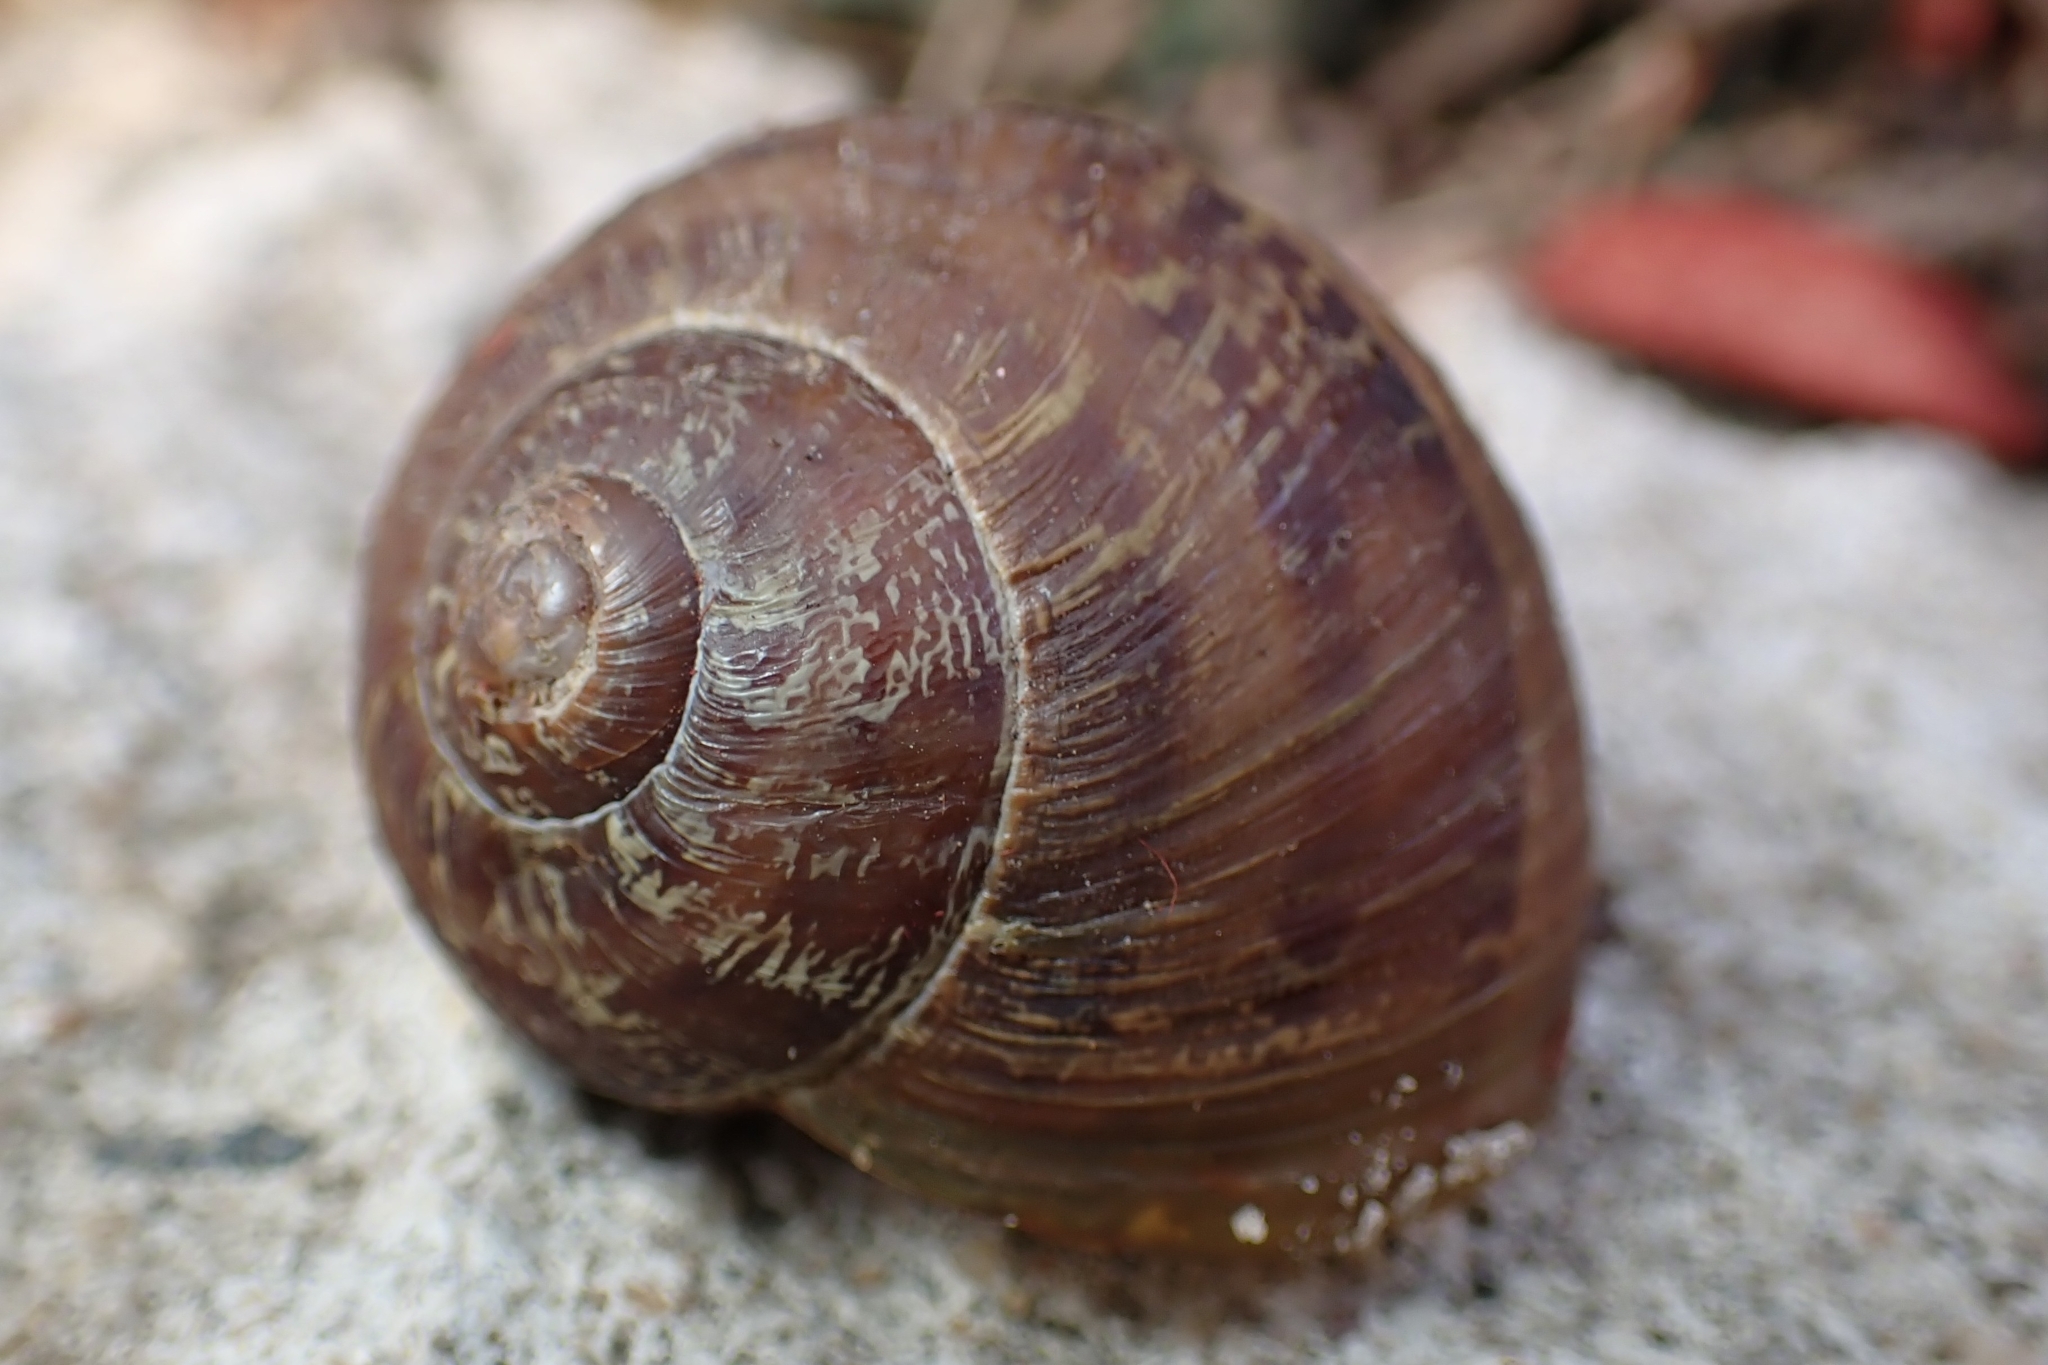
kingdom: Animalia
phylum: Mollusca
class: Gastropoda
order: Stylommatophora
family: Helicidae
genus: Cornu
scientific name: Cornu aspersum
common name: Brown garden snail
